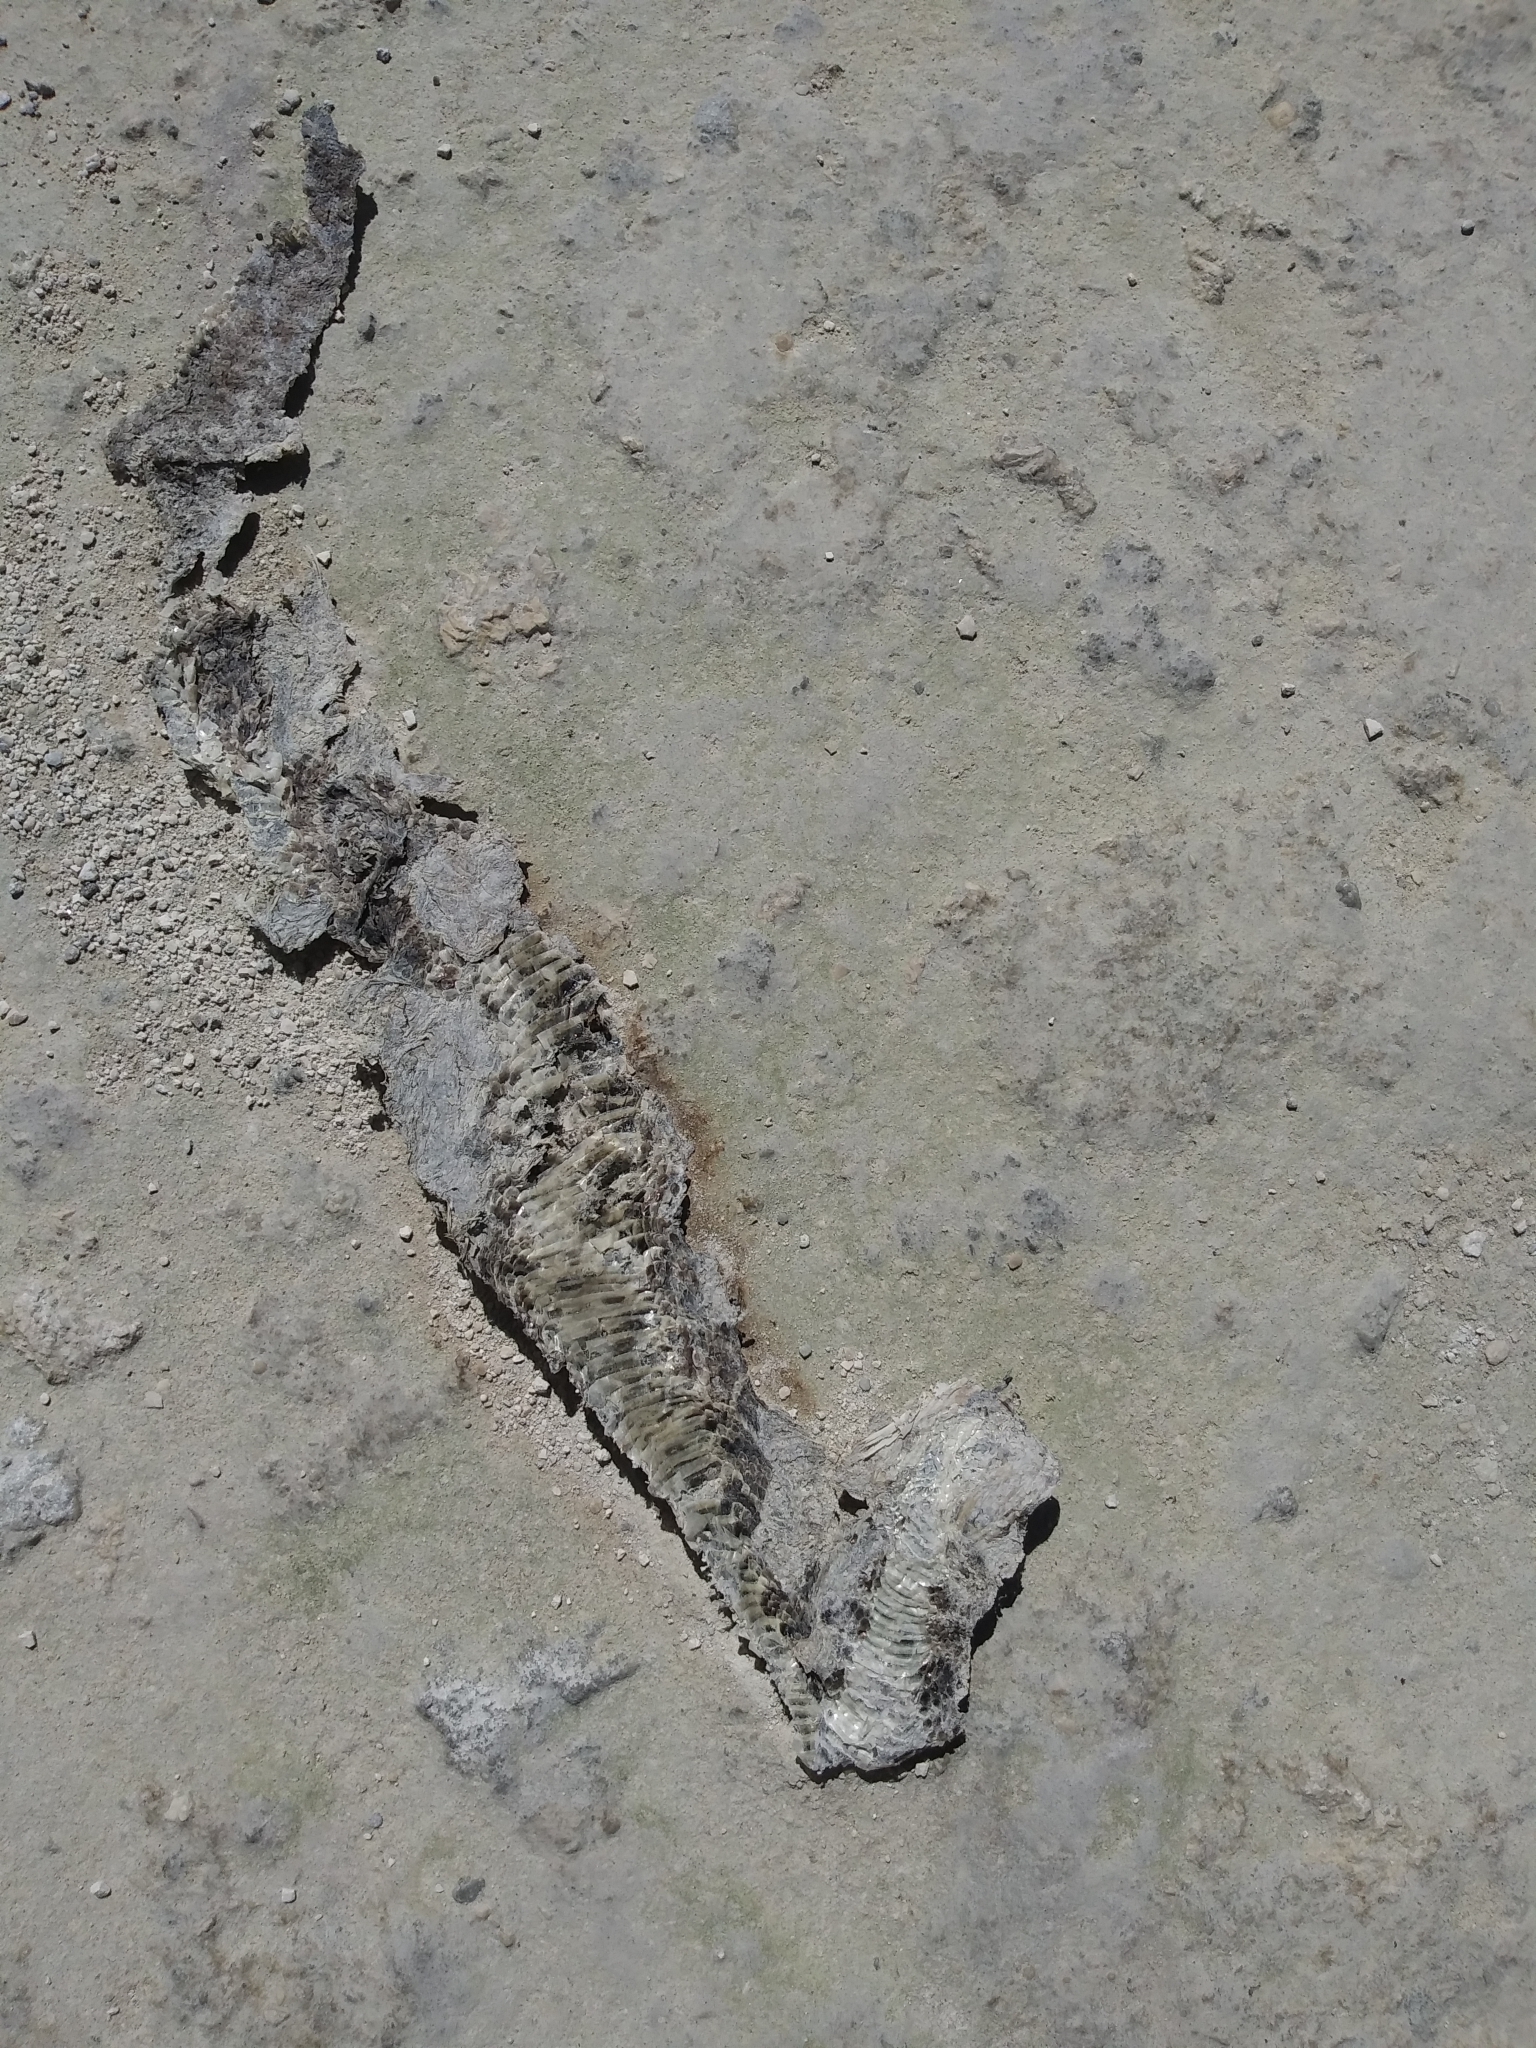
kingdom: Animalia
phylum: Chordata
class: Squamata
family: Viperidae
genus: Crotalus
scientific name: Crotalus adamanteus
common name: Eastern diamondback rattlesnake
